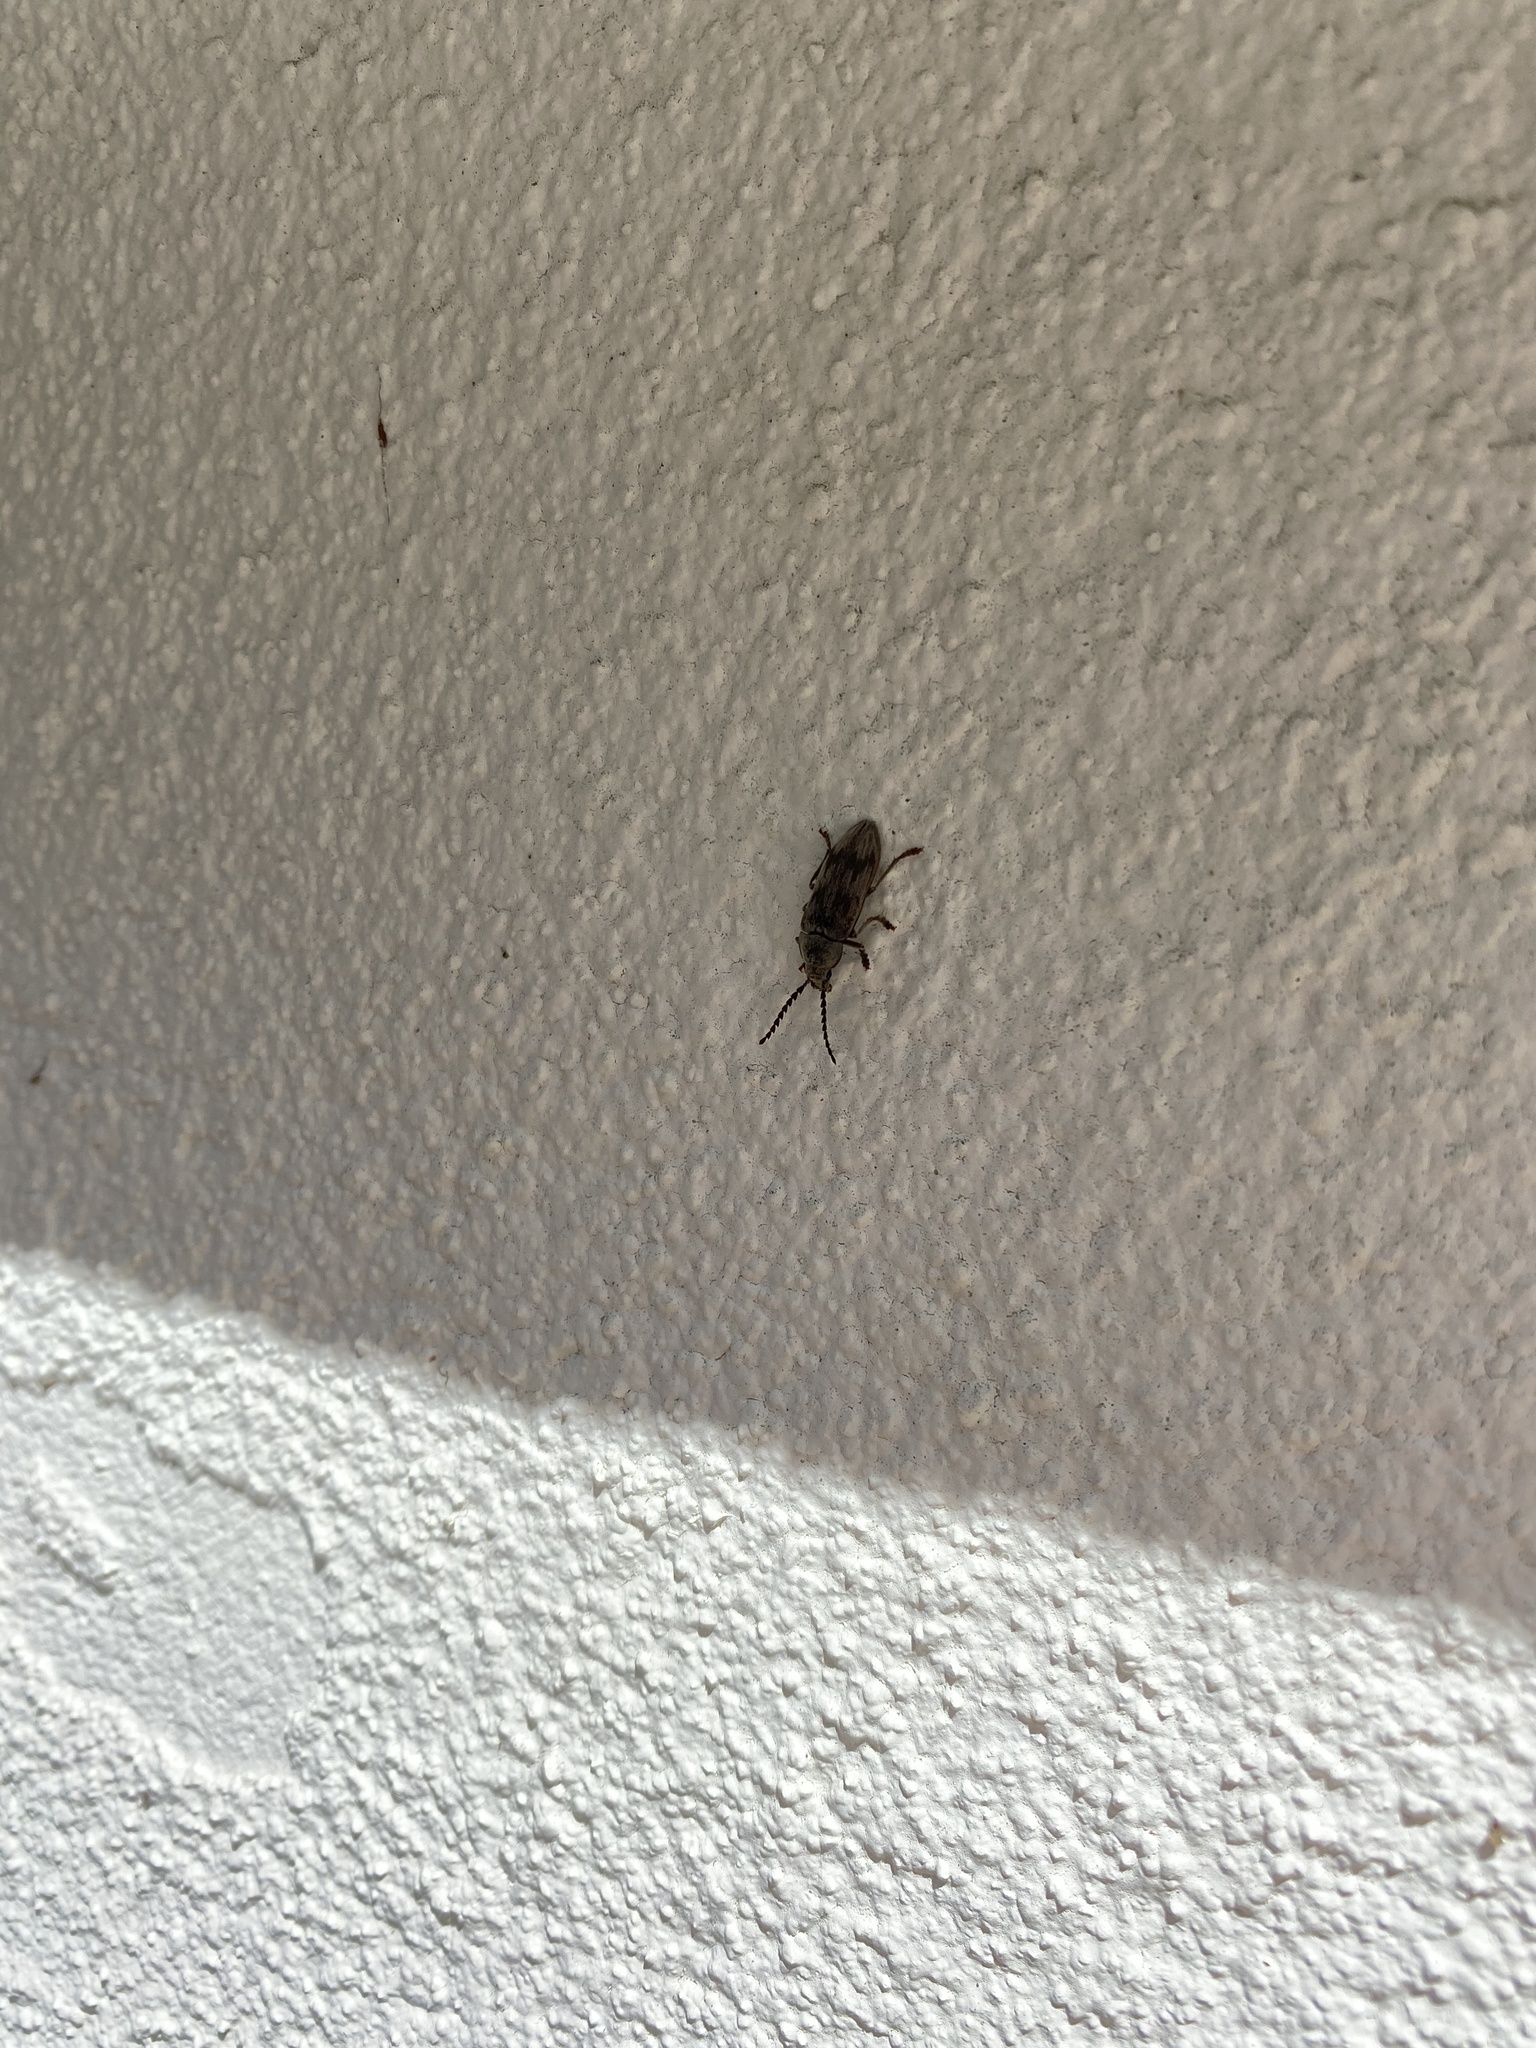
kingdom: Animalia
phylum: Arthropoda
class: Insecta
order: Coleoptera
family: Dascillidae
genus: Dascillus
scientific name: Dascillus davidsoni
